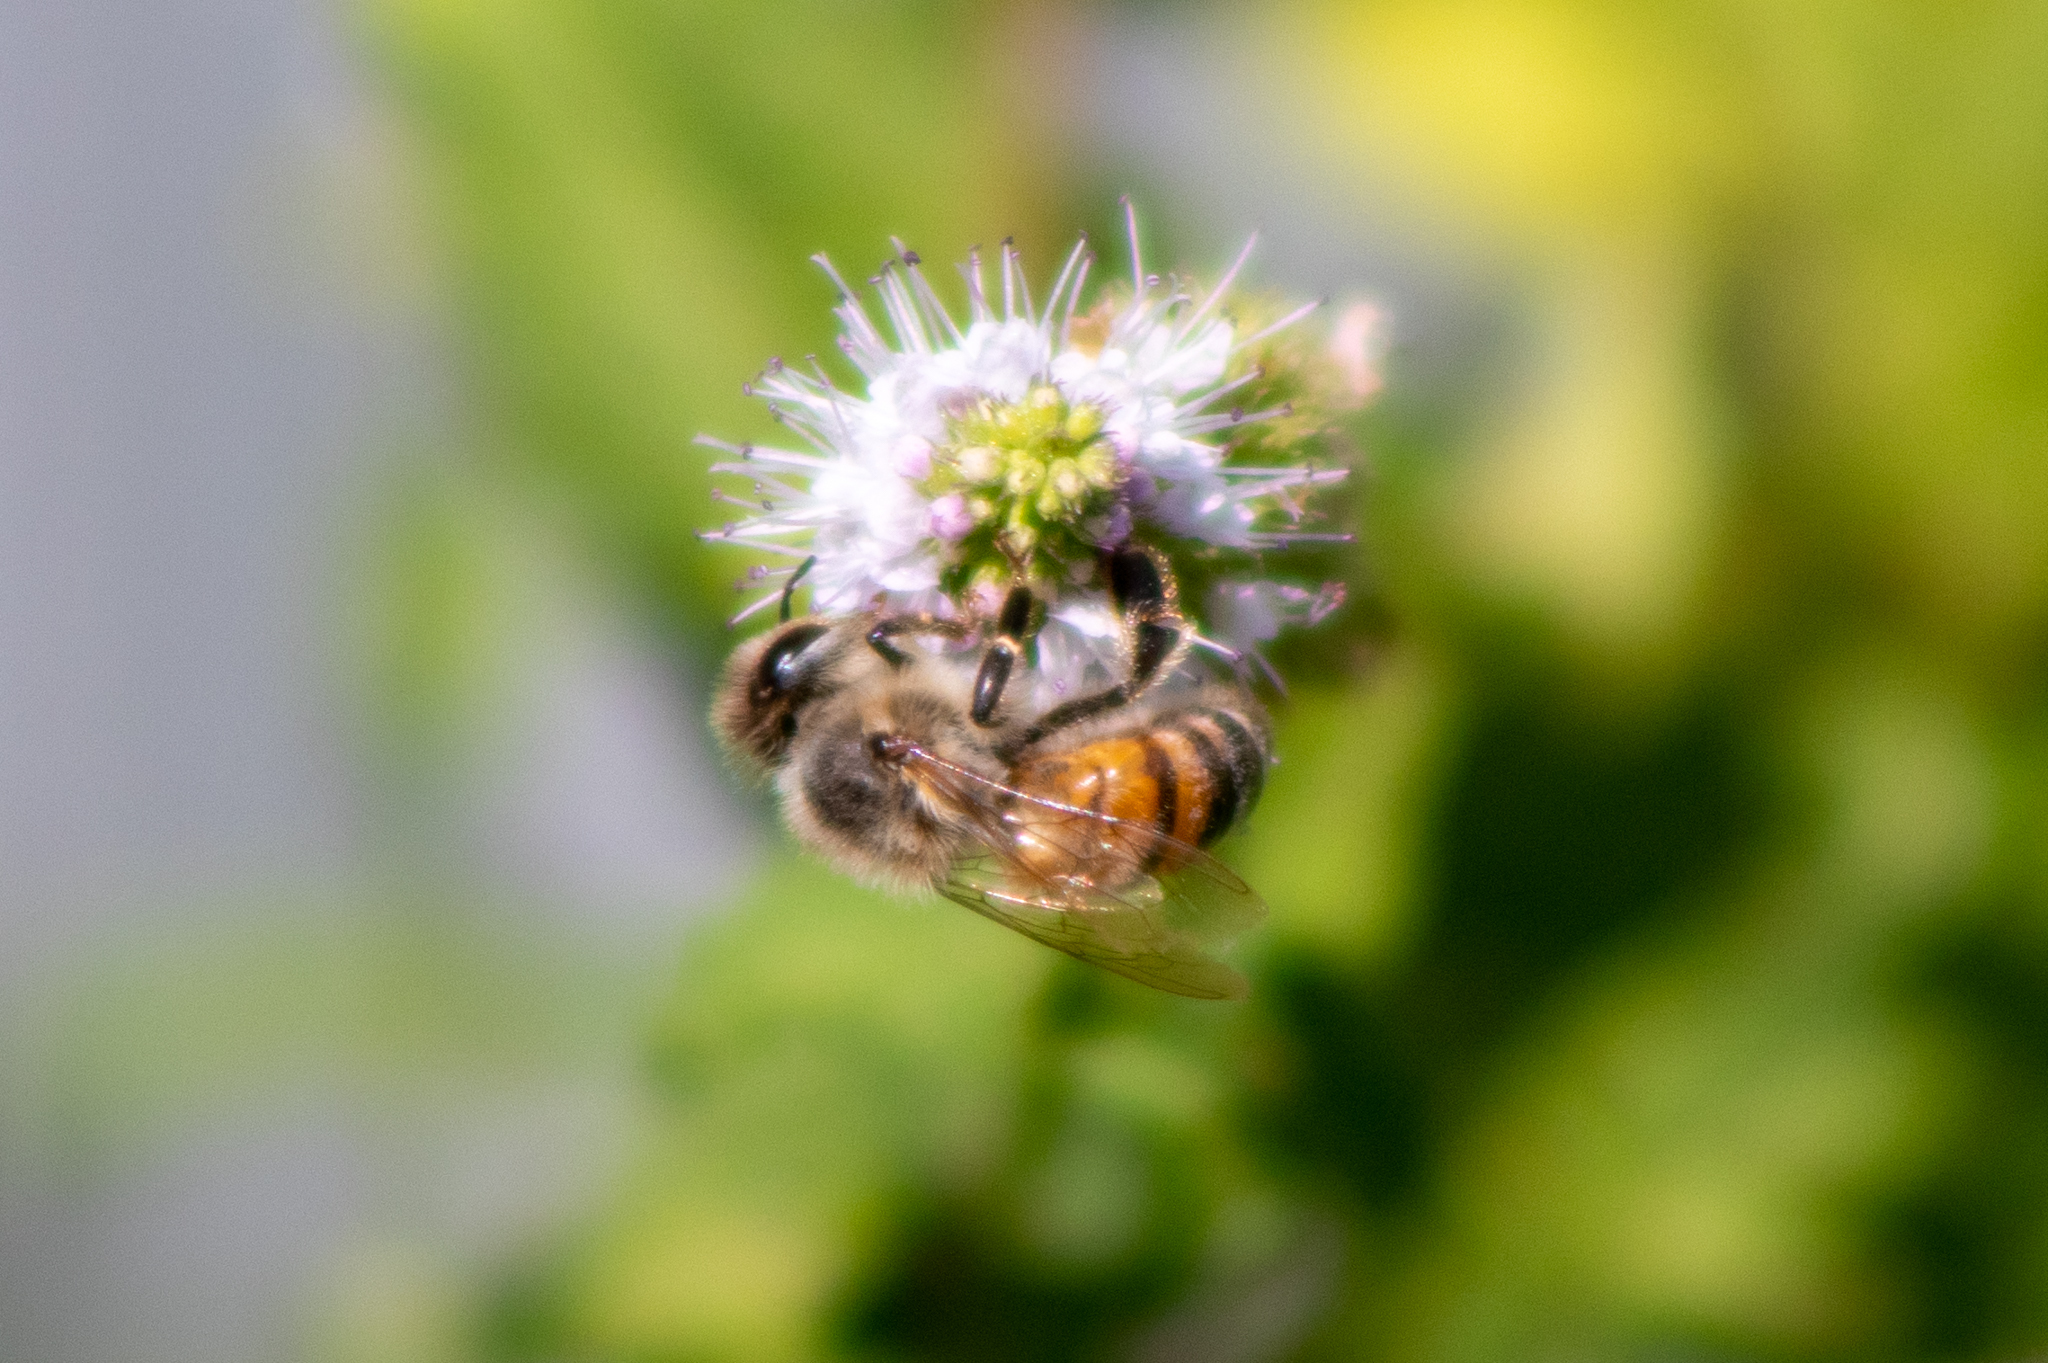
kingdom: Animalia
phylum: Arthropoda
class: Insecta
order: Hymenoptera
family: Apidae
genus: Apis
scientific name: Apis mellifera
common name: Honey bee
